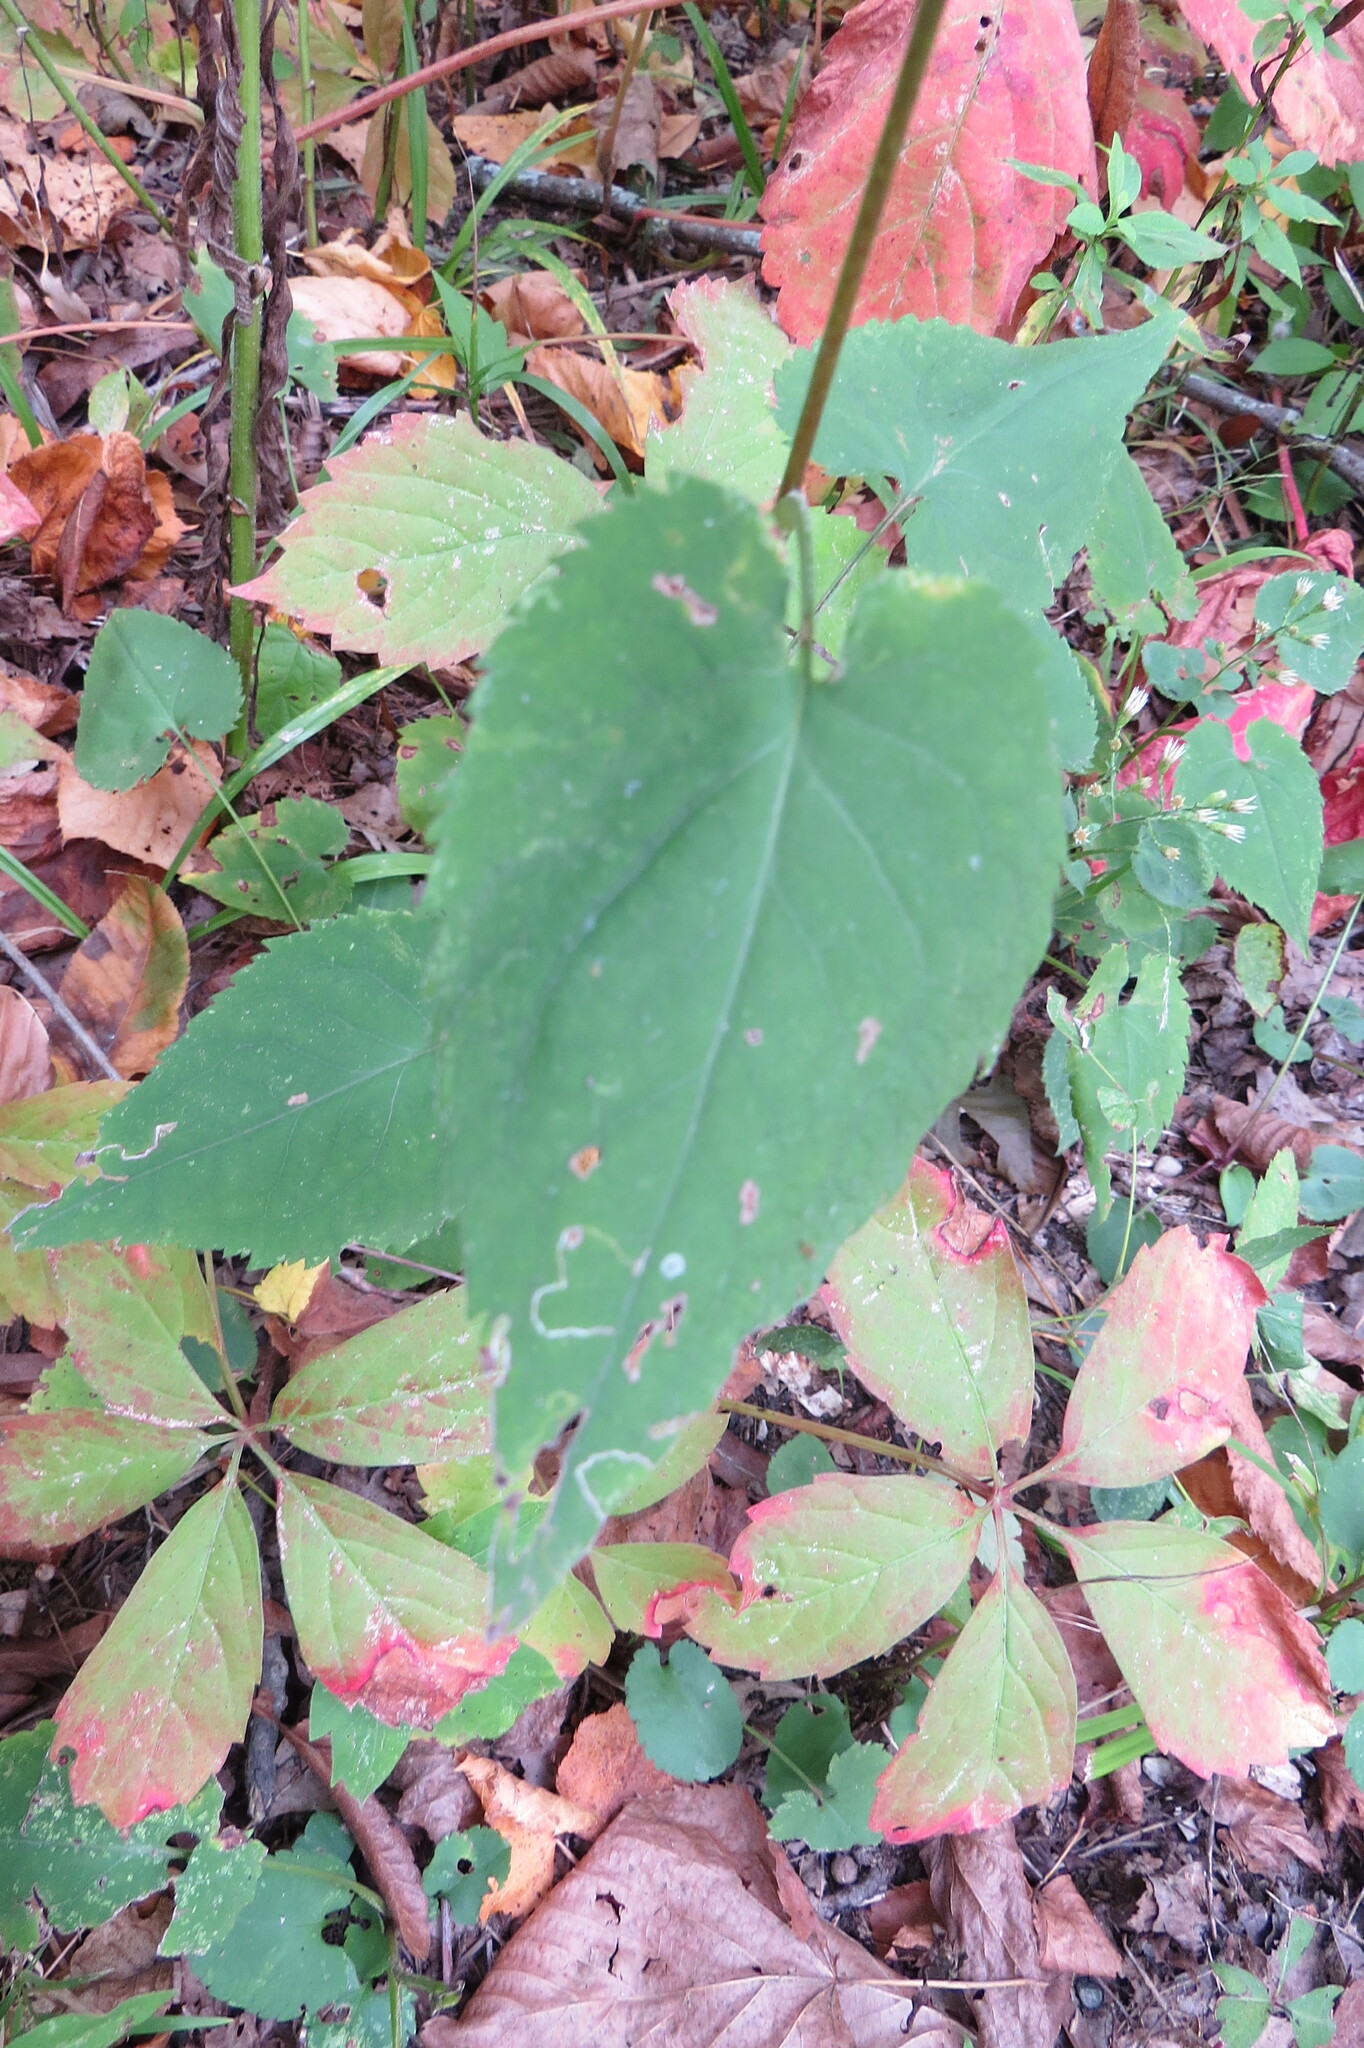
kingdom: Plantae
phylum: Tracheophyta
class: Magnoliopsida
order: Asterales
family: Asteraceae
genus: Symphyotrichum
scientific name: Symphyotrichum cordifolium
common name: Beeweed
